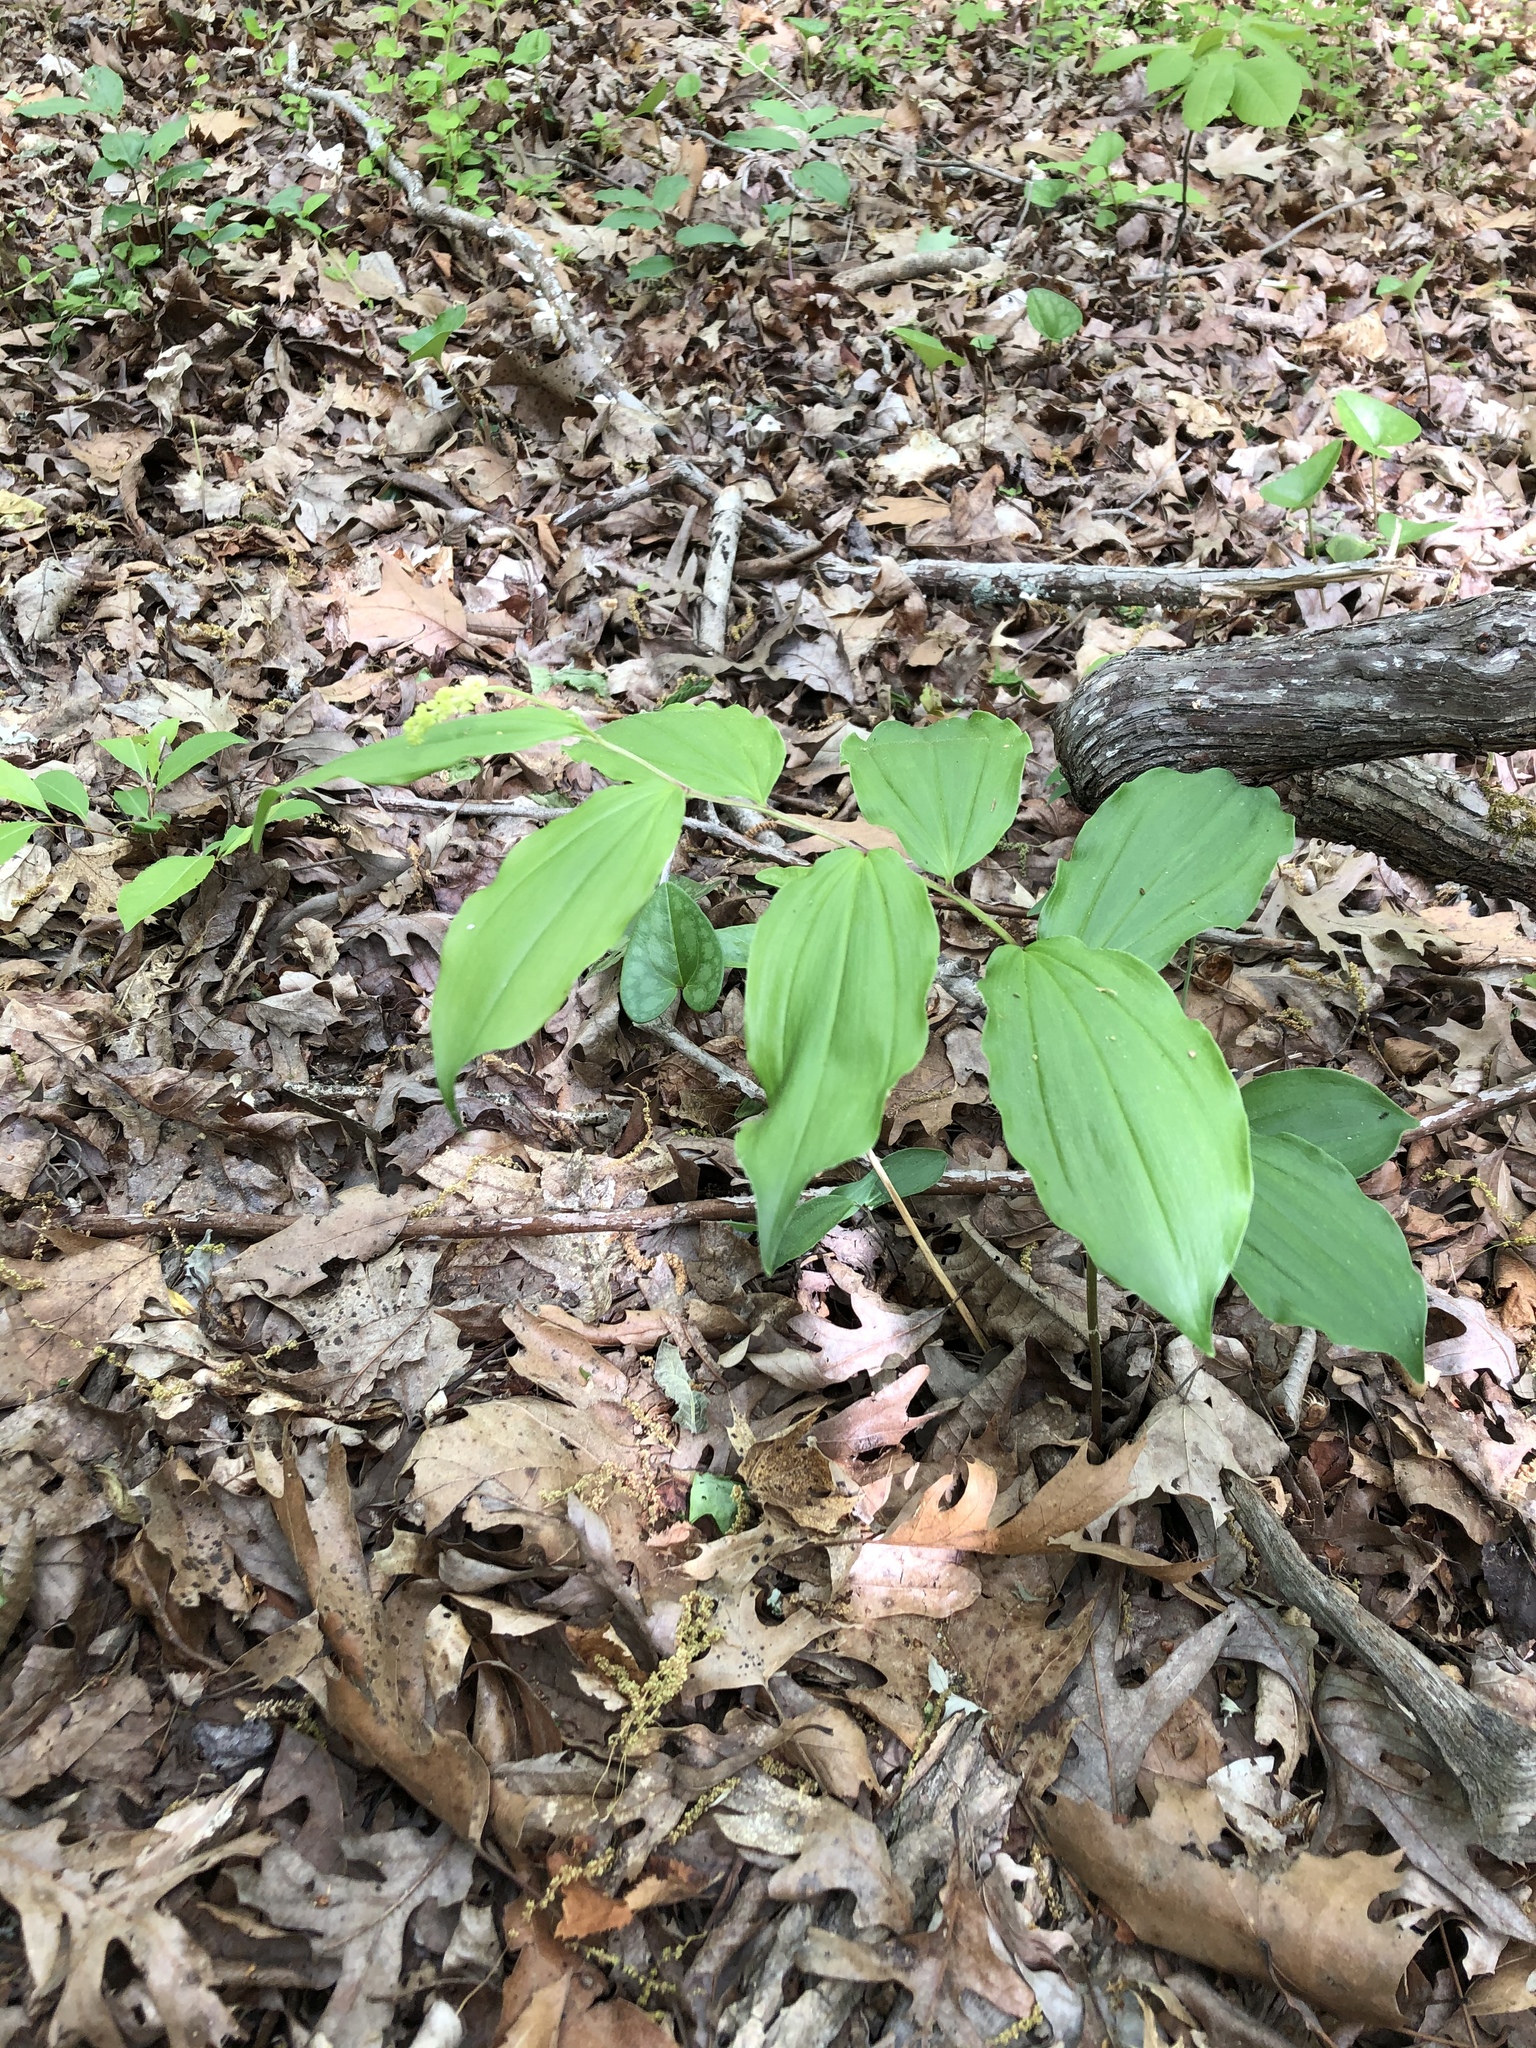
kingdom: Plantae
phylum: Tracheophyta
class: Liliopsida
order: Asparagales
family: Asparagaceae
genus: Maianthemum
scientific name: Maianthemum racemosum
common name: False spikenard
